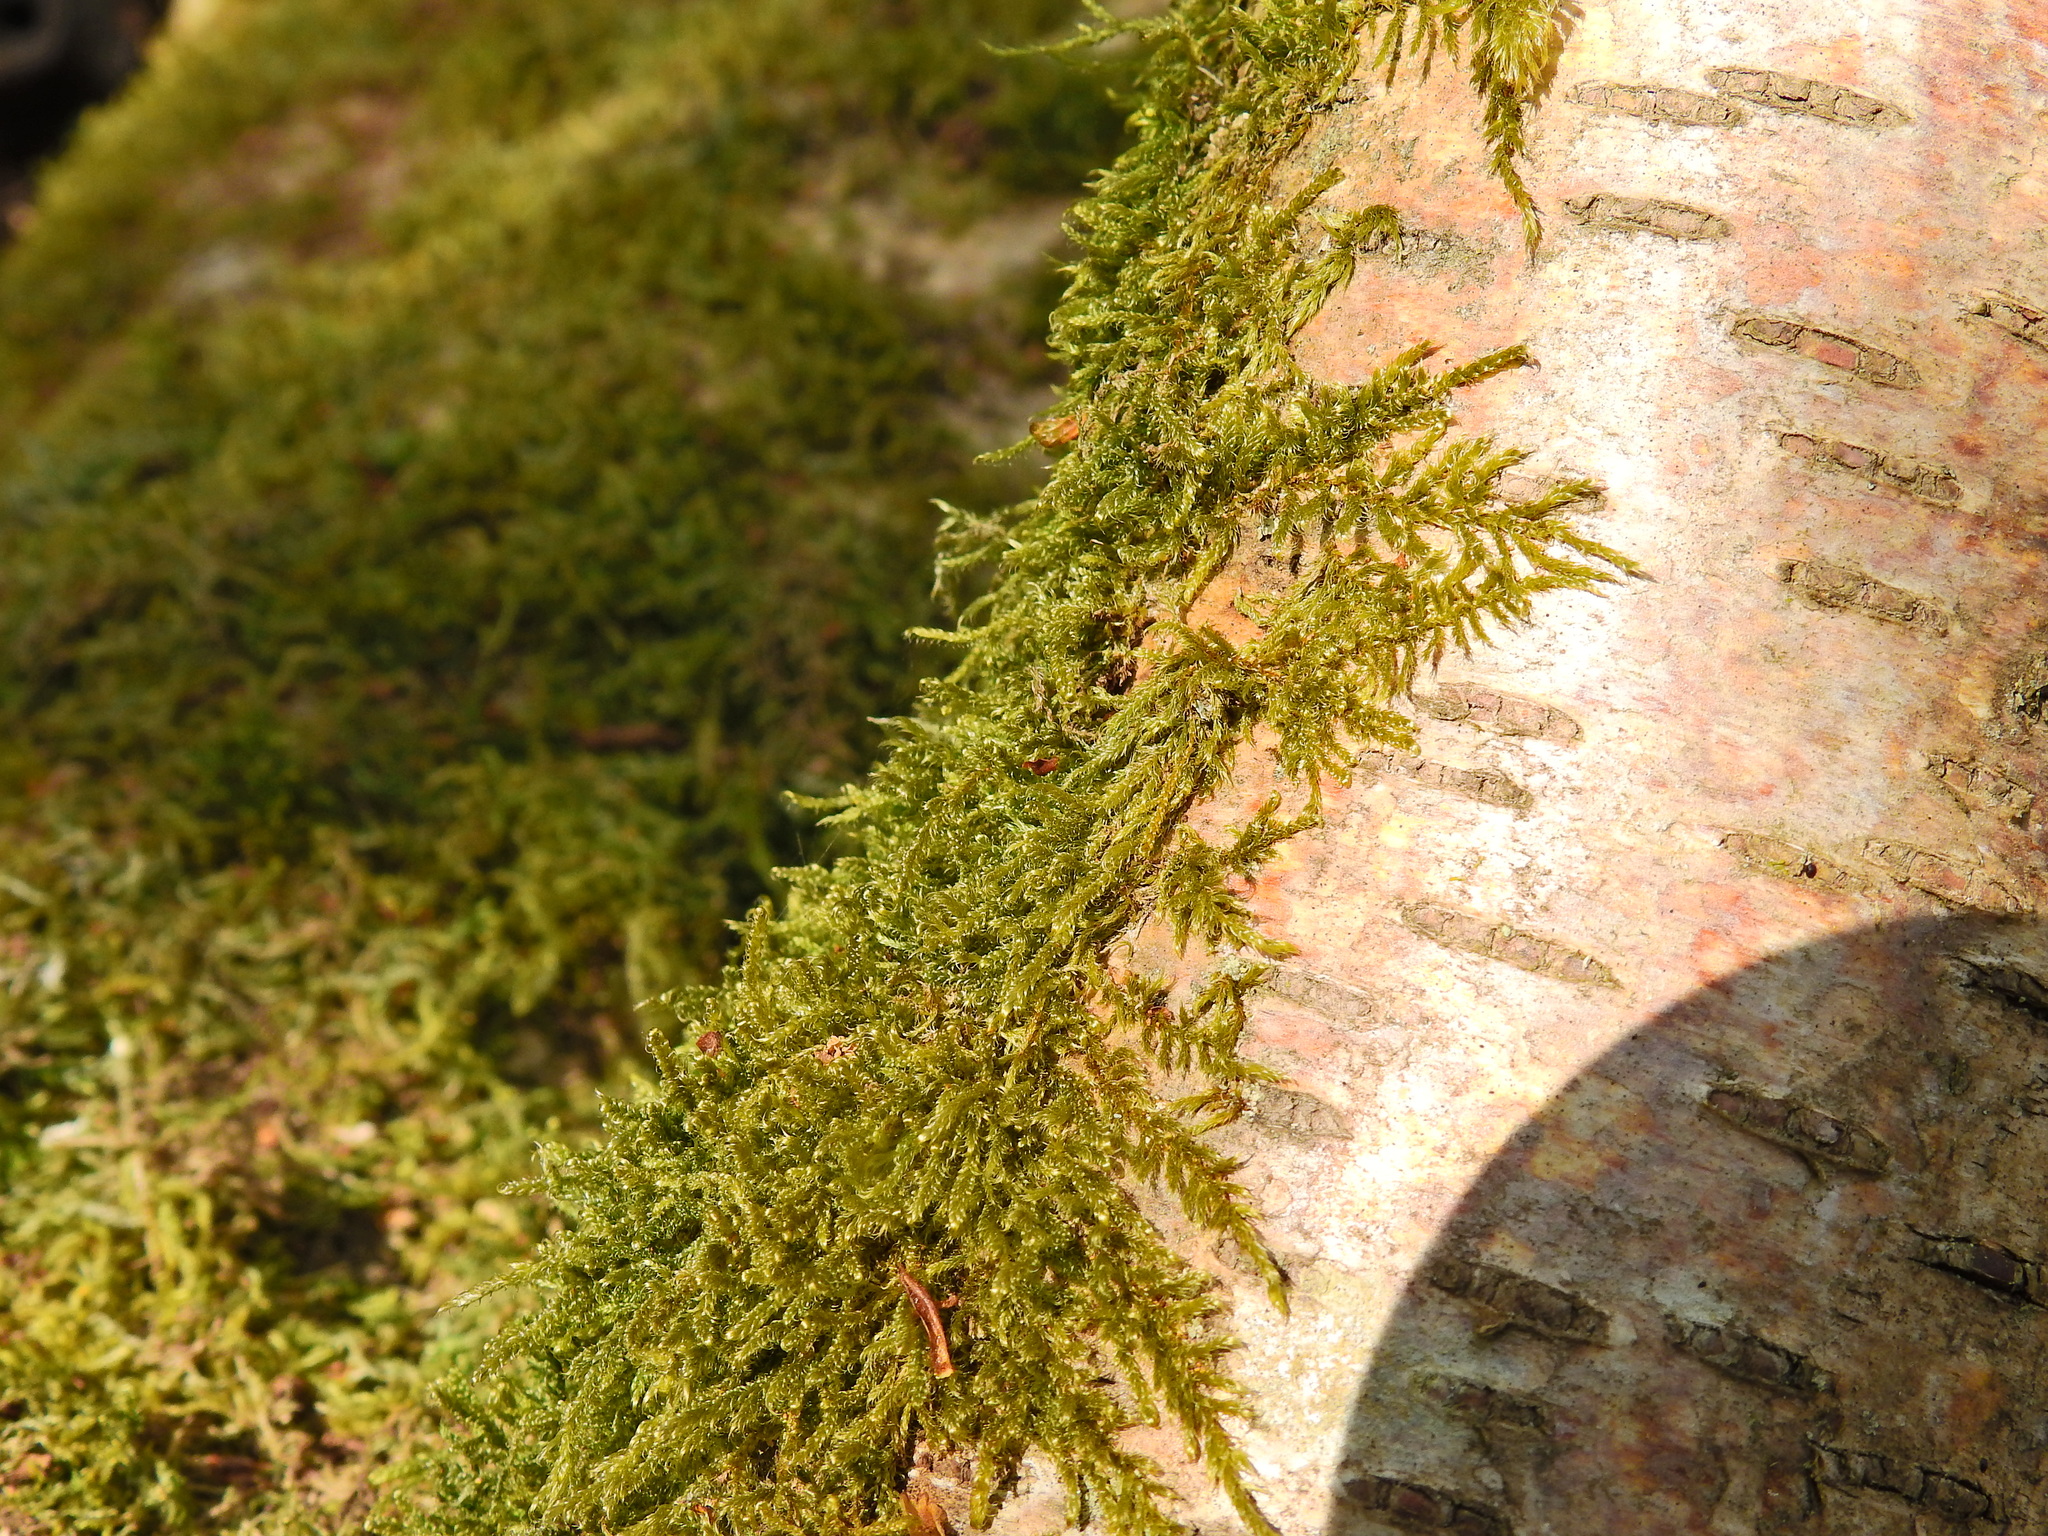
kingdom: Plantae
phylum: Bryophyta
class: Bryopsida
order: Hypnales
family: Hypnaceae
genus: Hypnum
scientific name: Hypnum cupressiforme
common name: Cypress-leaved plait-moss
